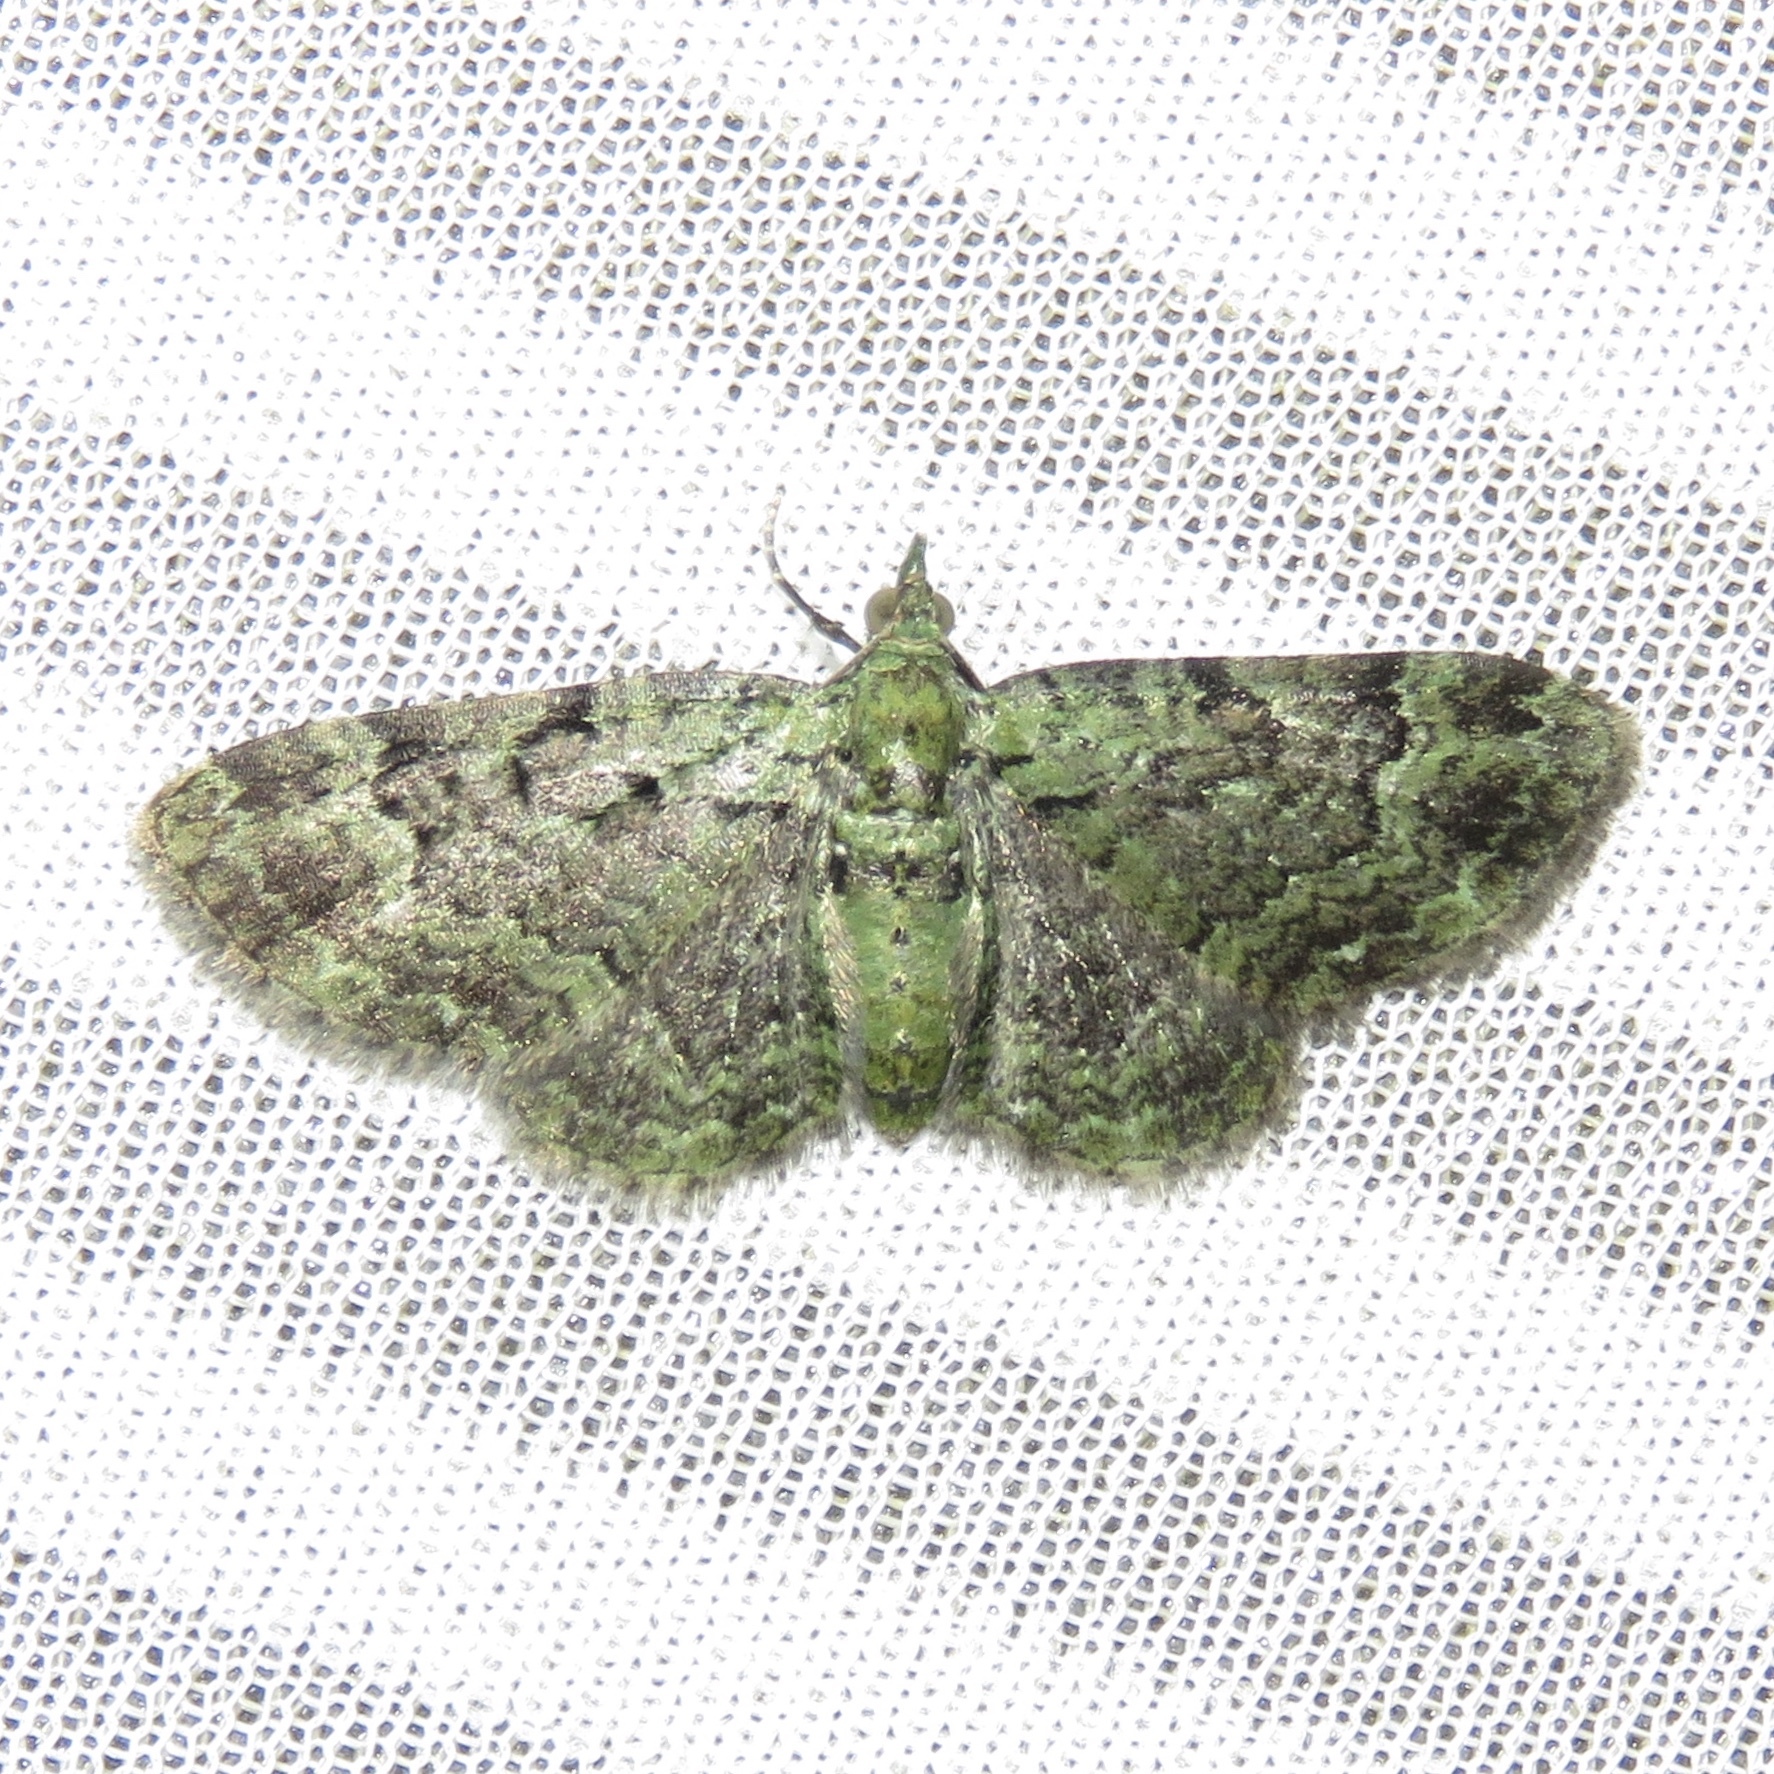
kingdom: Animalia
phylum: Arthropoda
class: Insecta
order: Lepidoptera
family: Geometridae
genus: Pasiphila
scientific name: Pasiphila rectangulata
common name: Green pug
